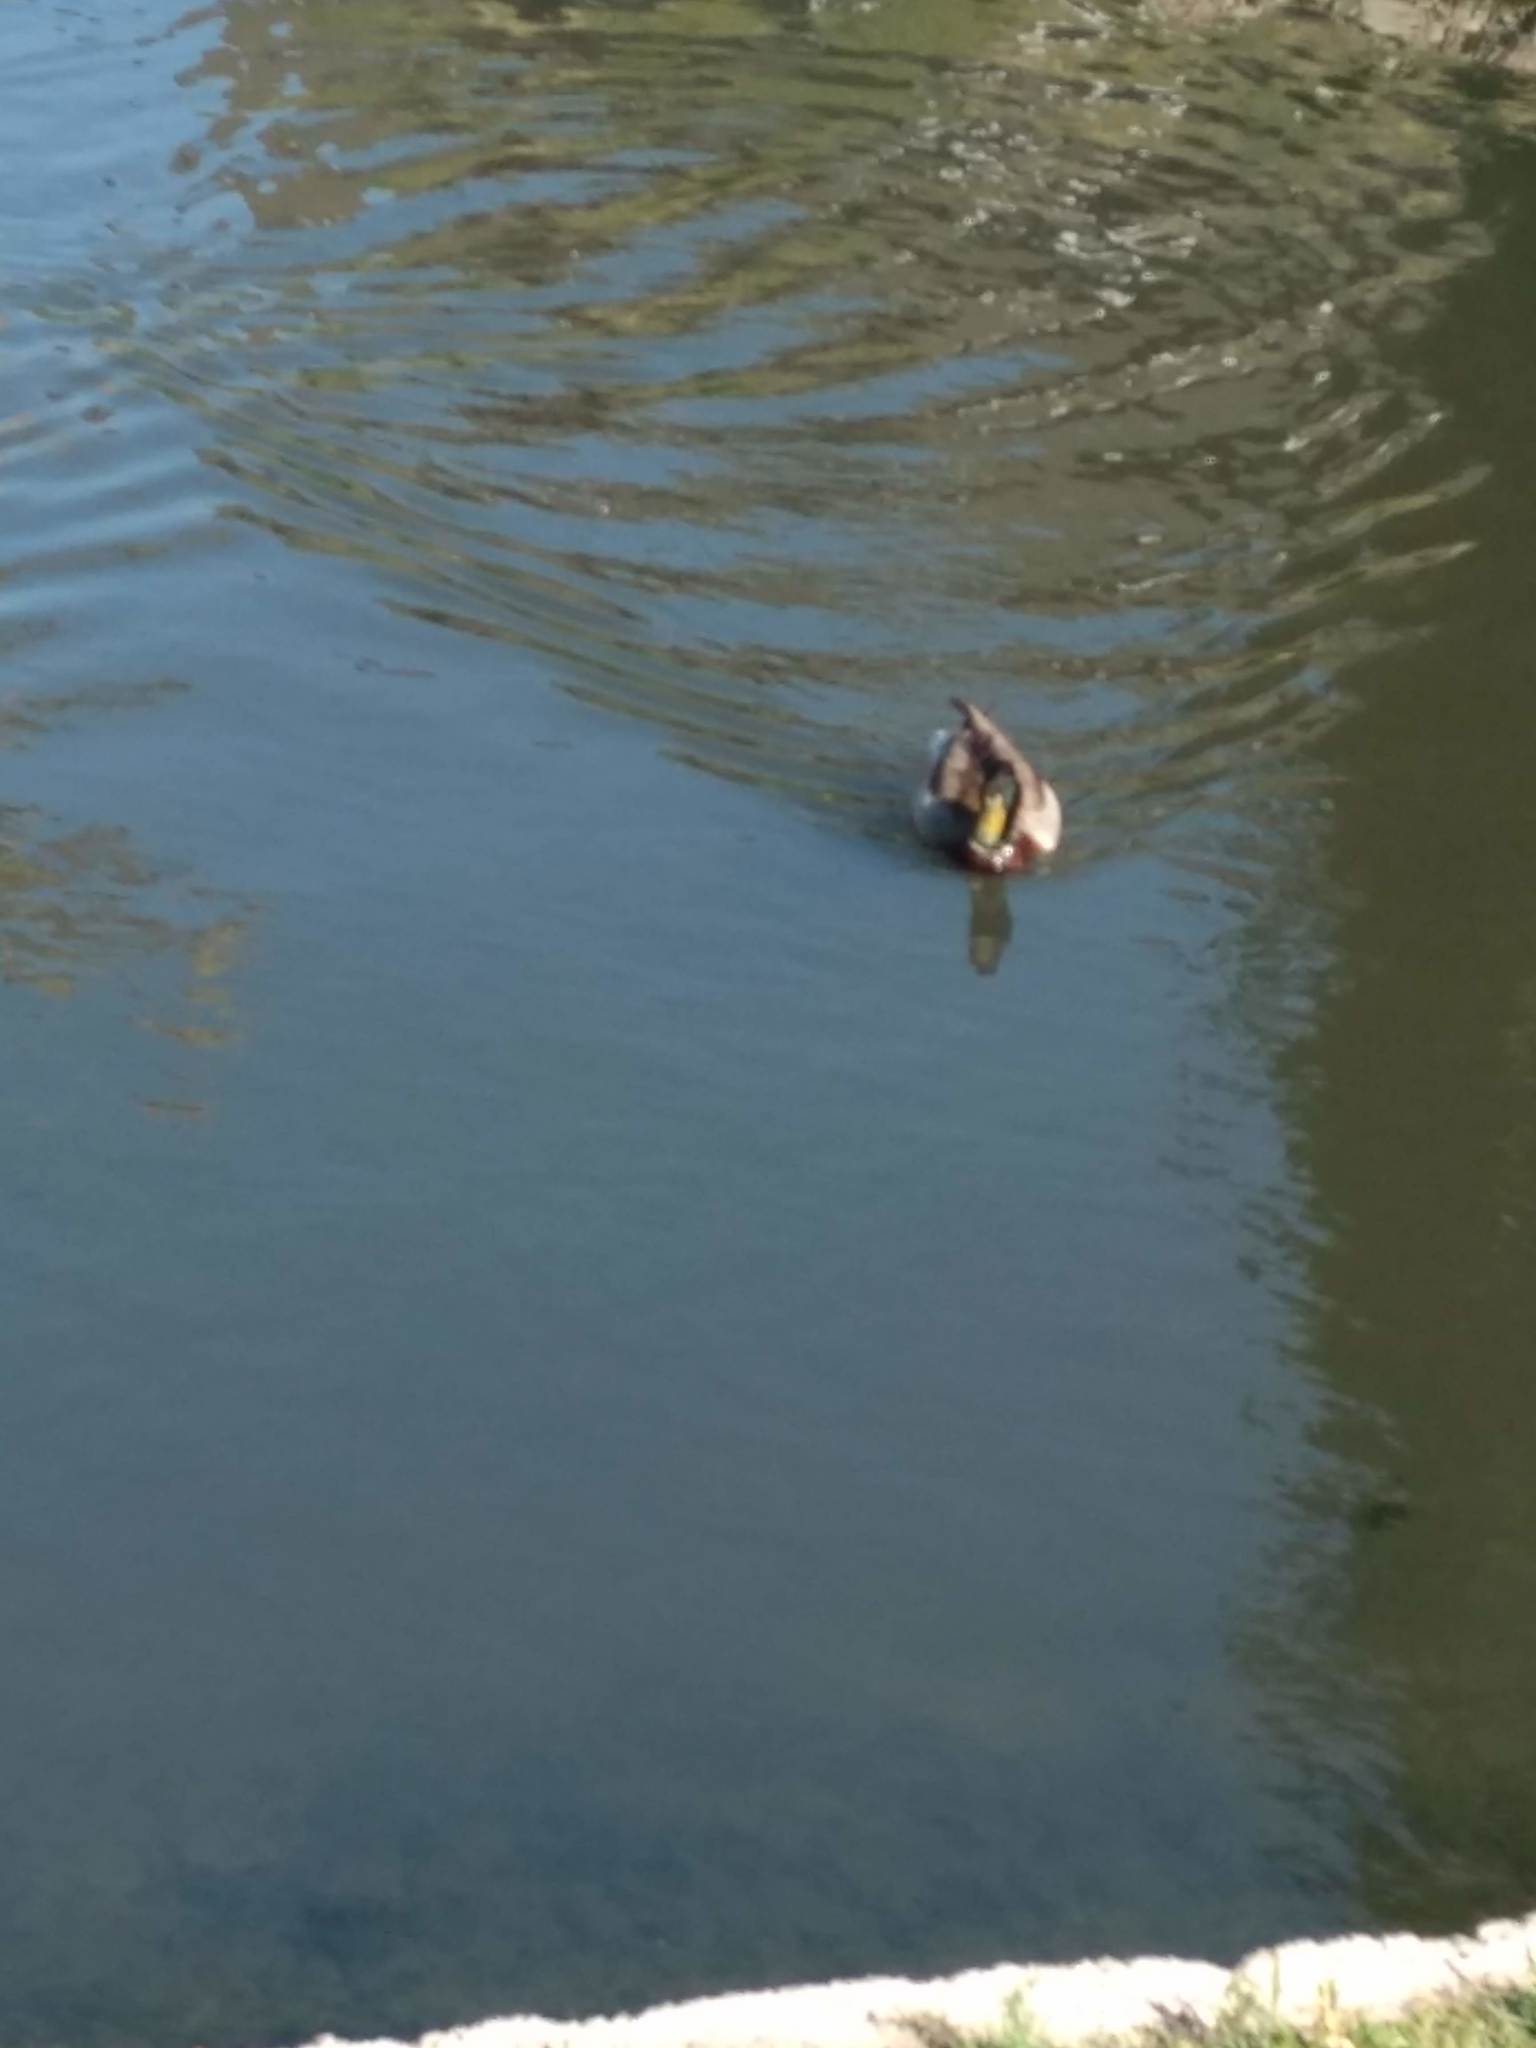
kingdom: Animalia
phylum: Chordata
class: Aves
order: Anseriformes
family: Anatidae
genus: Anas
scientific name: Anas platyrhynchos
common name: Mallard
